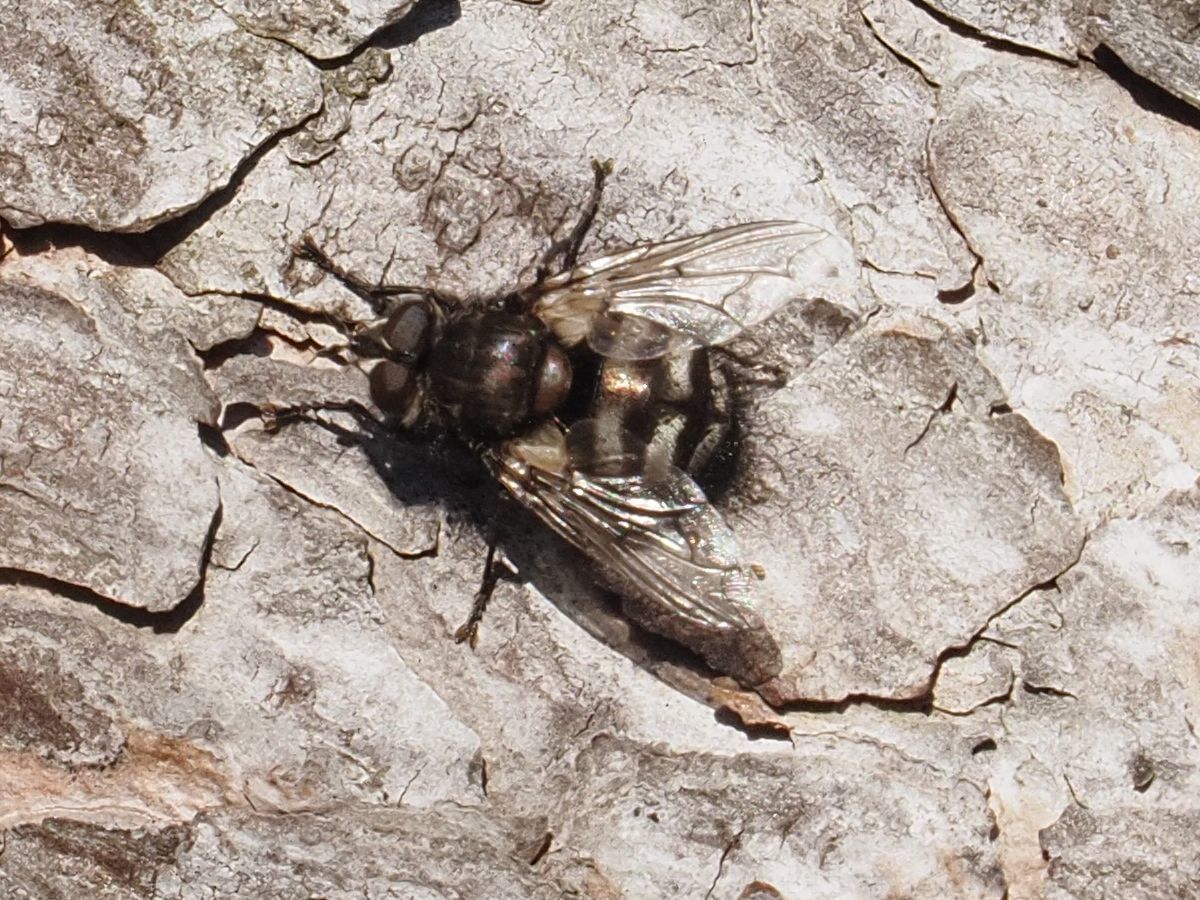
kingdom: Animalia
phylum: Arthropoda
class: Insecta
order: Diptera
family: Tachinidae
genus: Panzeria
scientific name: Panzeria puparum
